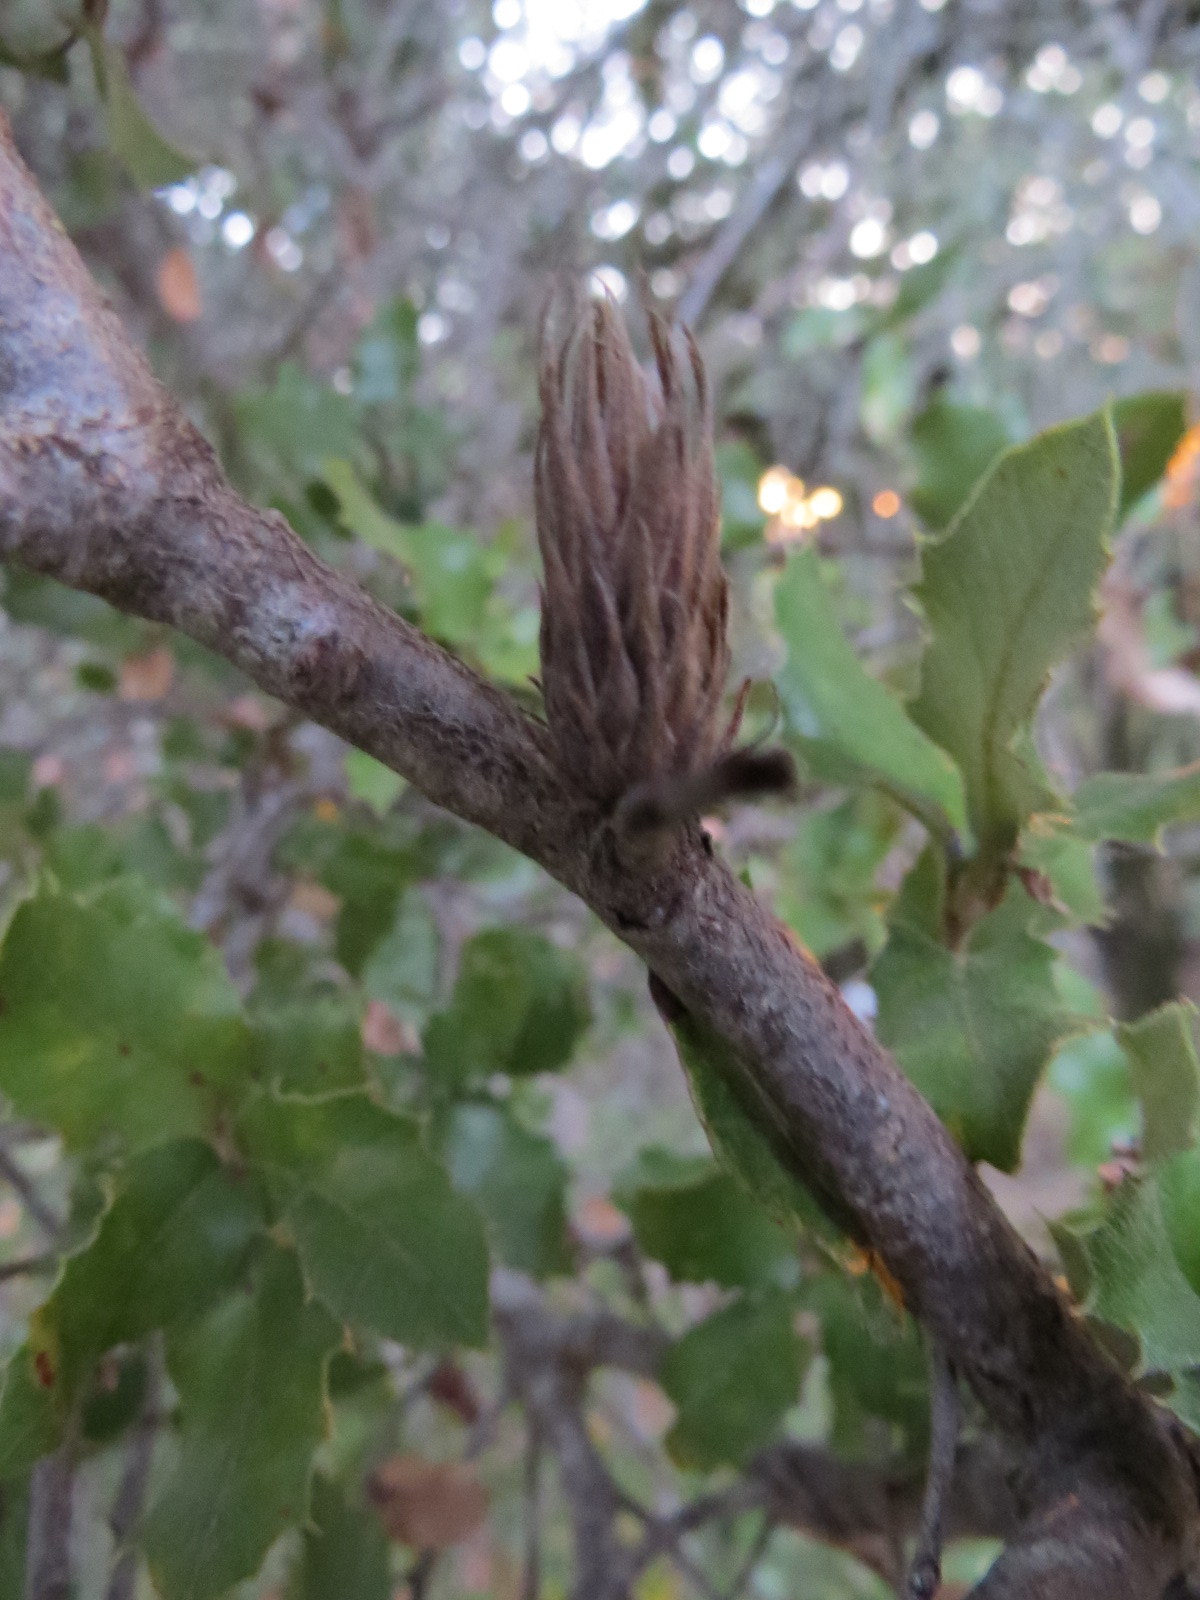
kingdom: Animalia
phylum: Arthropoda
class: Insecta
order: Hymenoptera
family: Cynipidae
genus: Andricus
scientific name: Andricus
